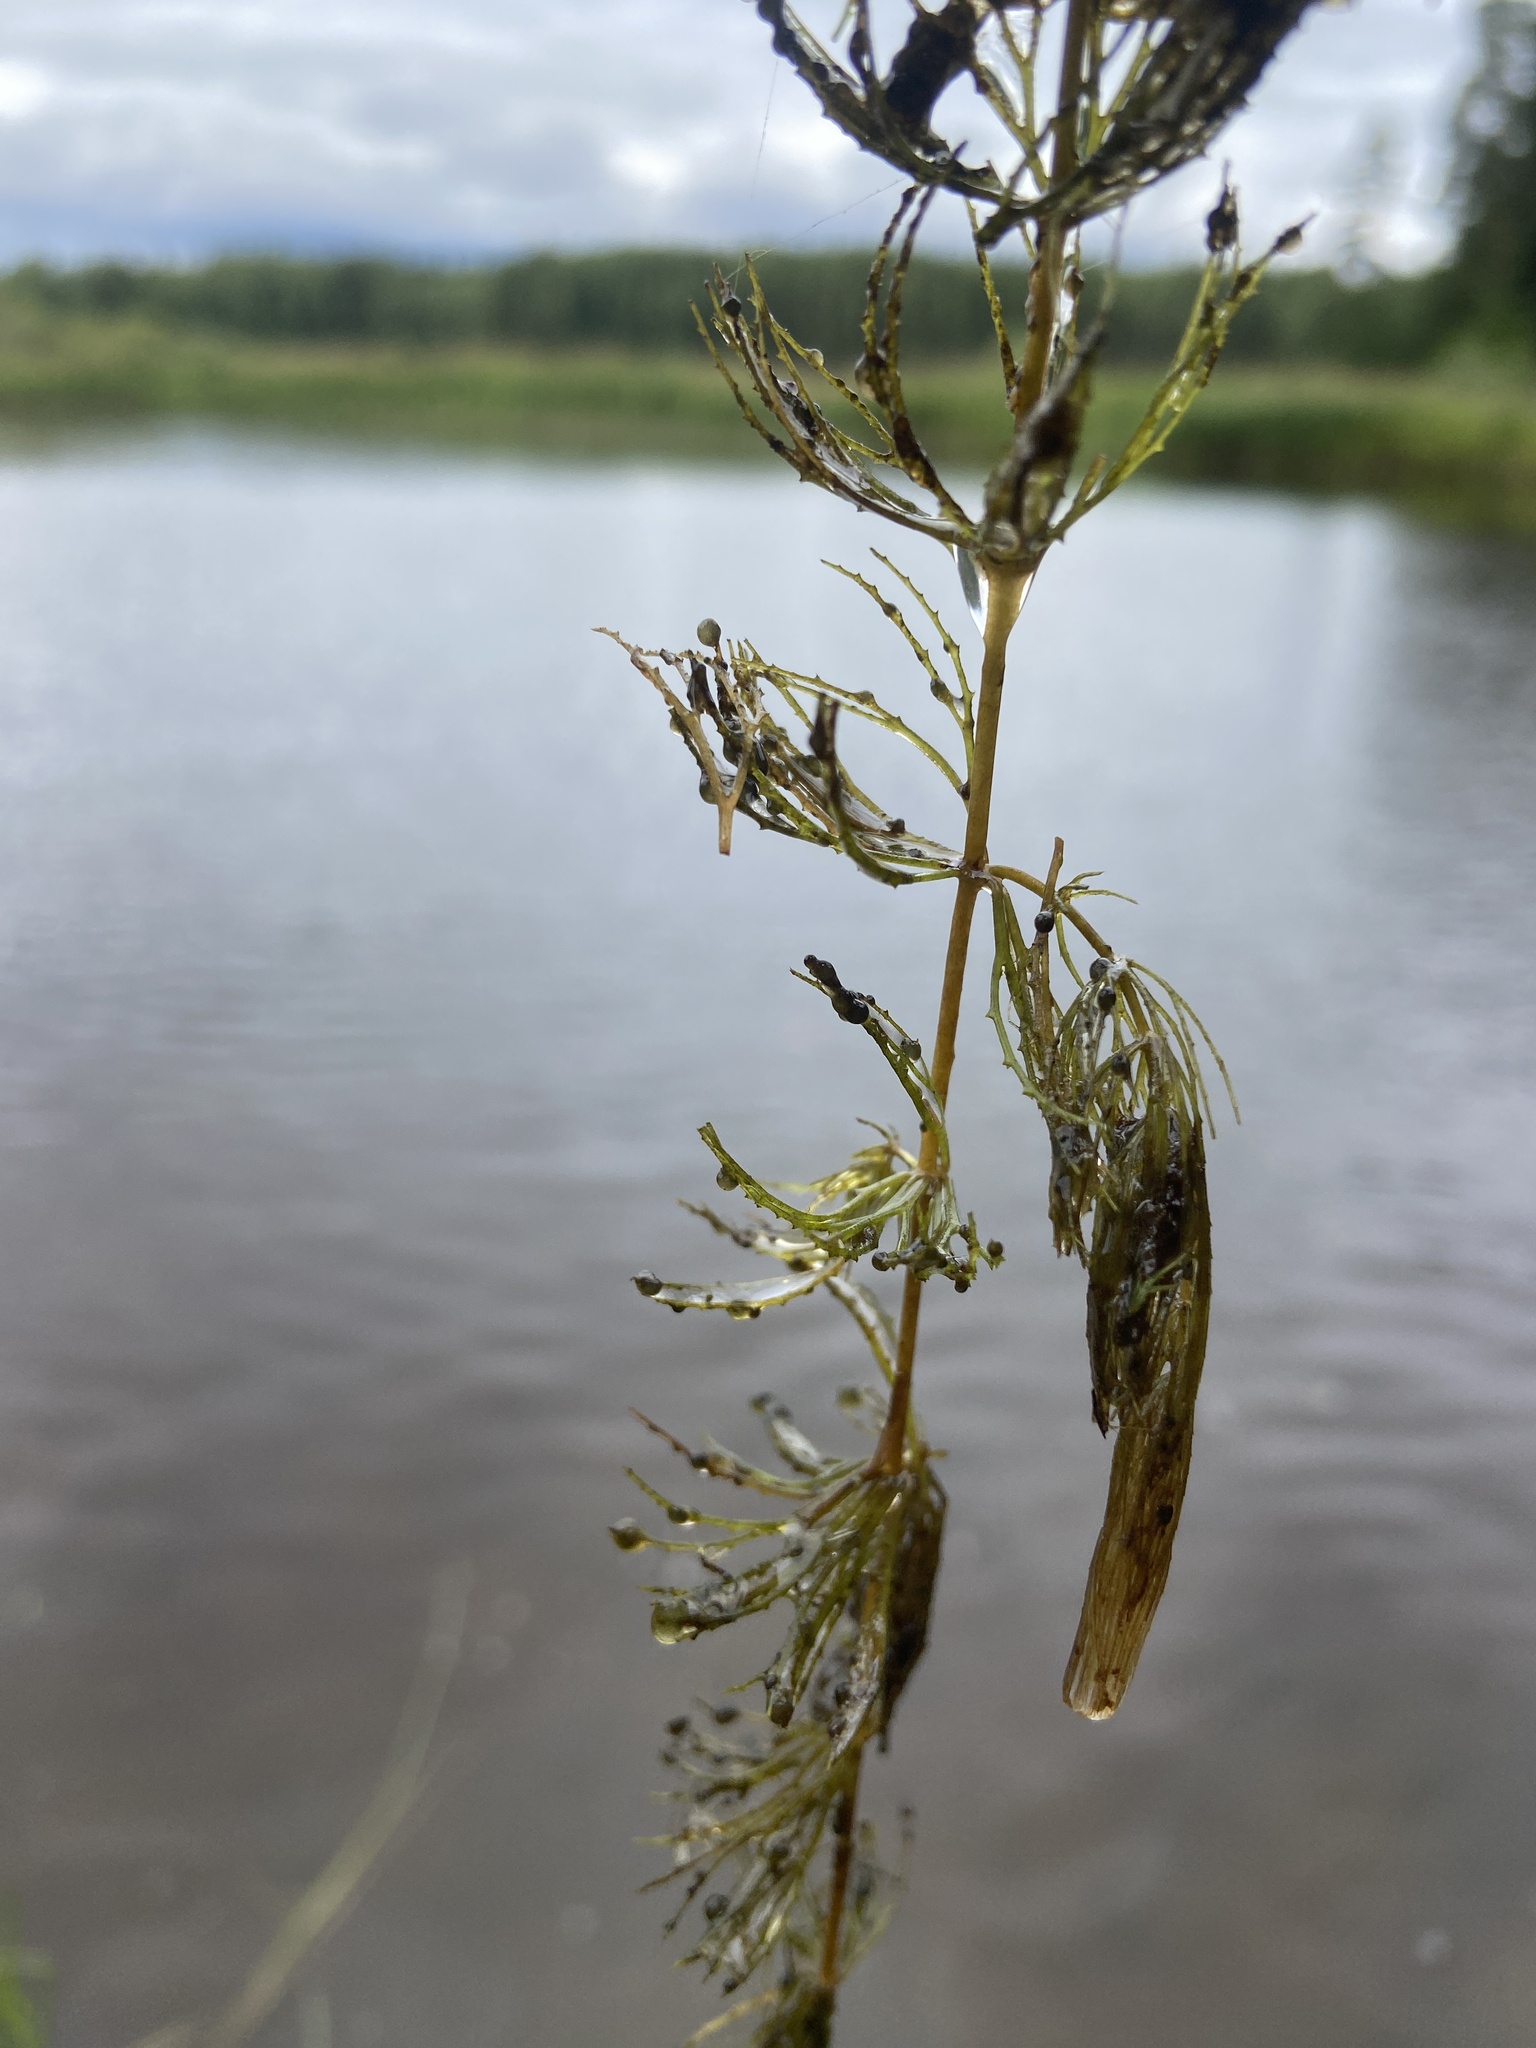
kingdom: Plantae
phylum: Tracheophyta
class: Magnoliopsida
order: Ceratophyllales
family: Ceratophyllaceae
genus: Ceratophyllum
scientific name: Ceratophyllum demersum
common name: Rigid hornwort
